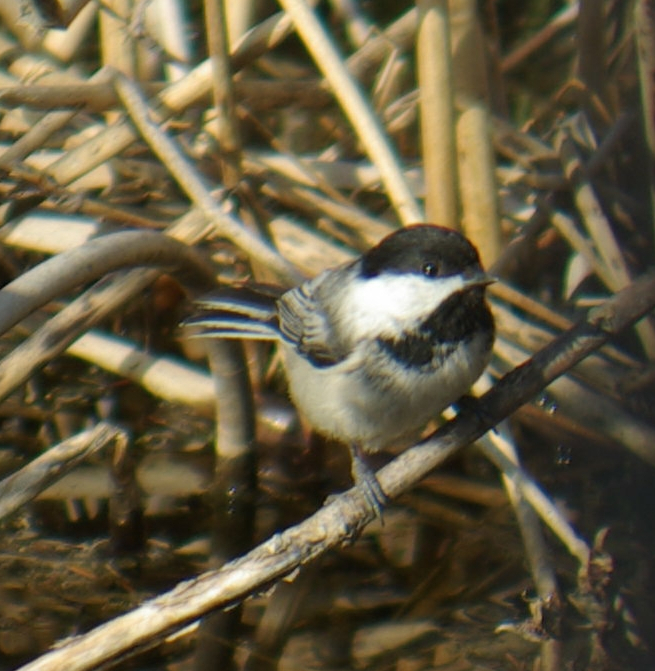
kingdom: Animalia
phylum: Chordata
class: Aves
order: Passeriformes
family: Paridae
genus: Poecile
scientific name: Poecile atricapillus
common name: Black-capped chickadee
